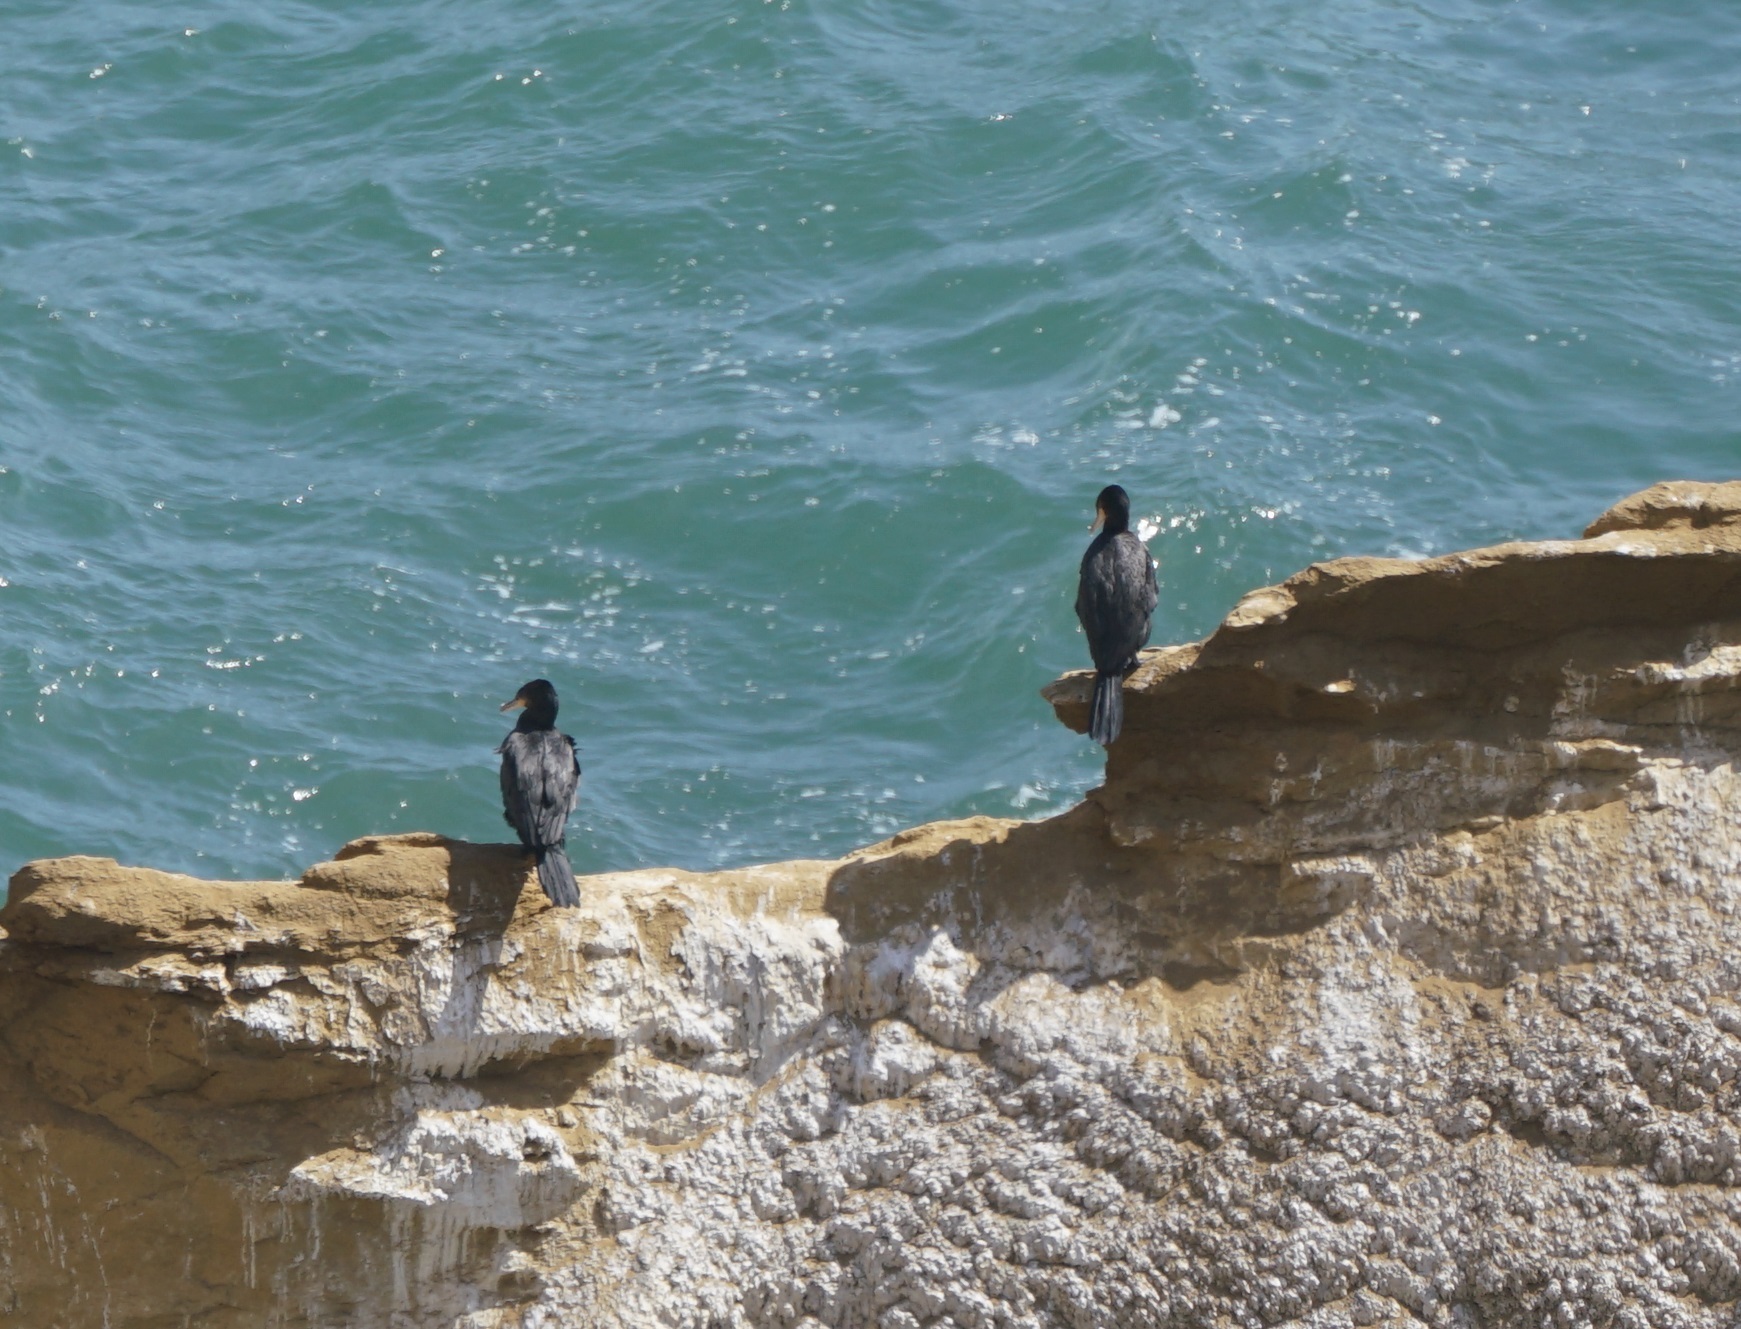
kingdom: Animalia
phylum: Chordata
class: Aves
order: Suliformes
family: Phalacrocoracidae
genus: Phalacrocorax
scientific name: Phalacrocorax brasilianus
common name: Neotropic cormorant
